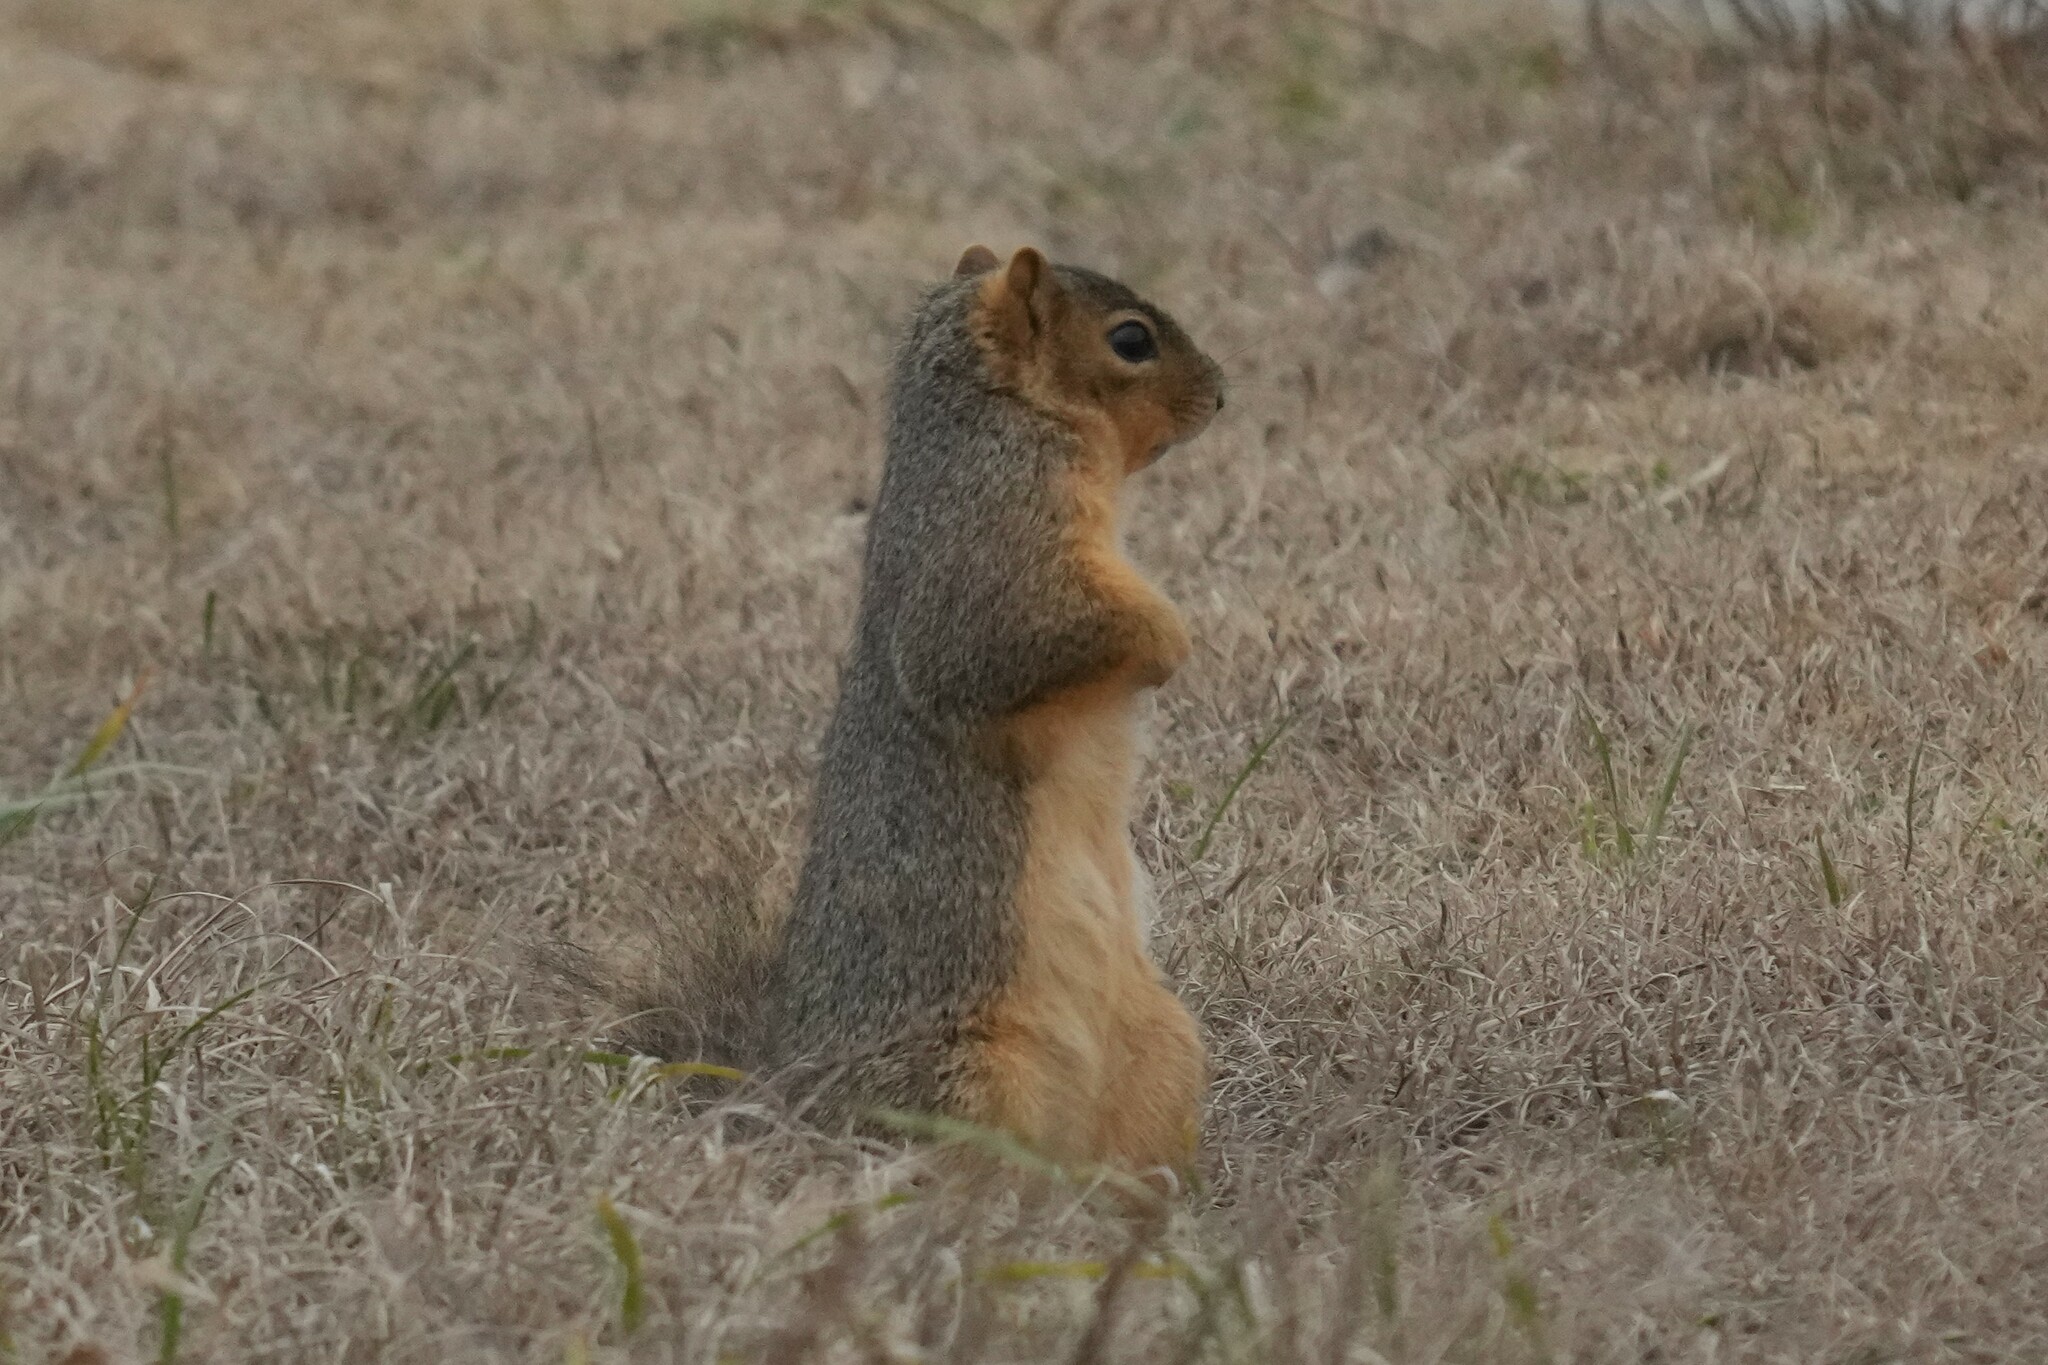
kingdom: Animalia
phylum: Chordata
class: Mammalia
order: Rodentia
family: Sciuridae
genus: Sciurus
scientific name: Sciurus niger
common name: Fox squirrel
